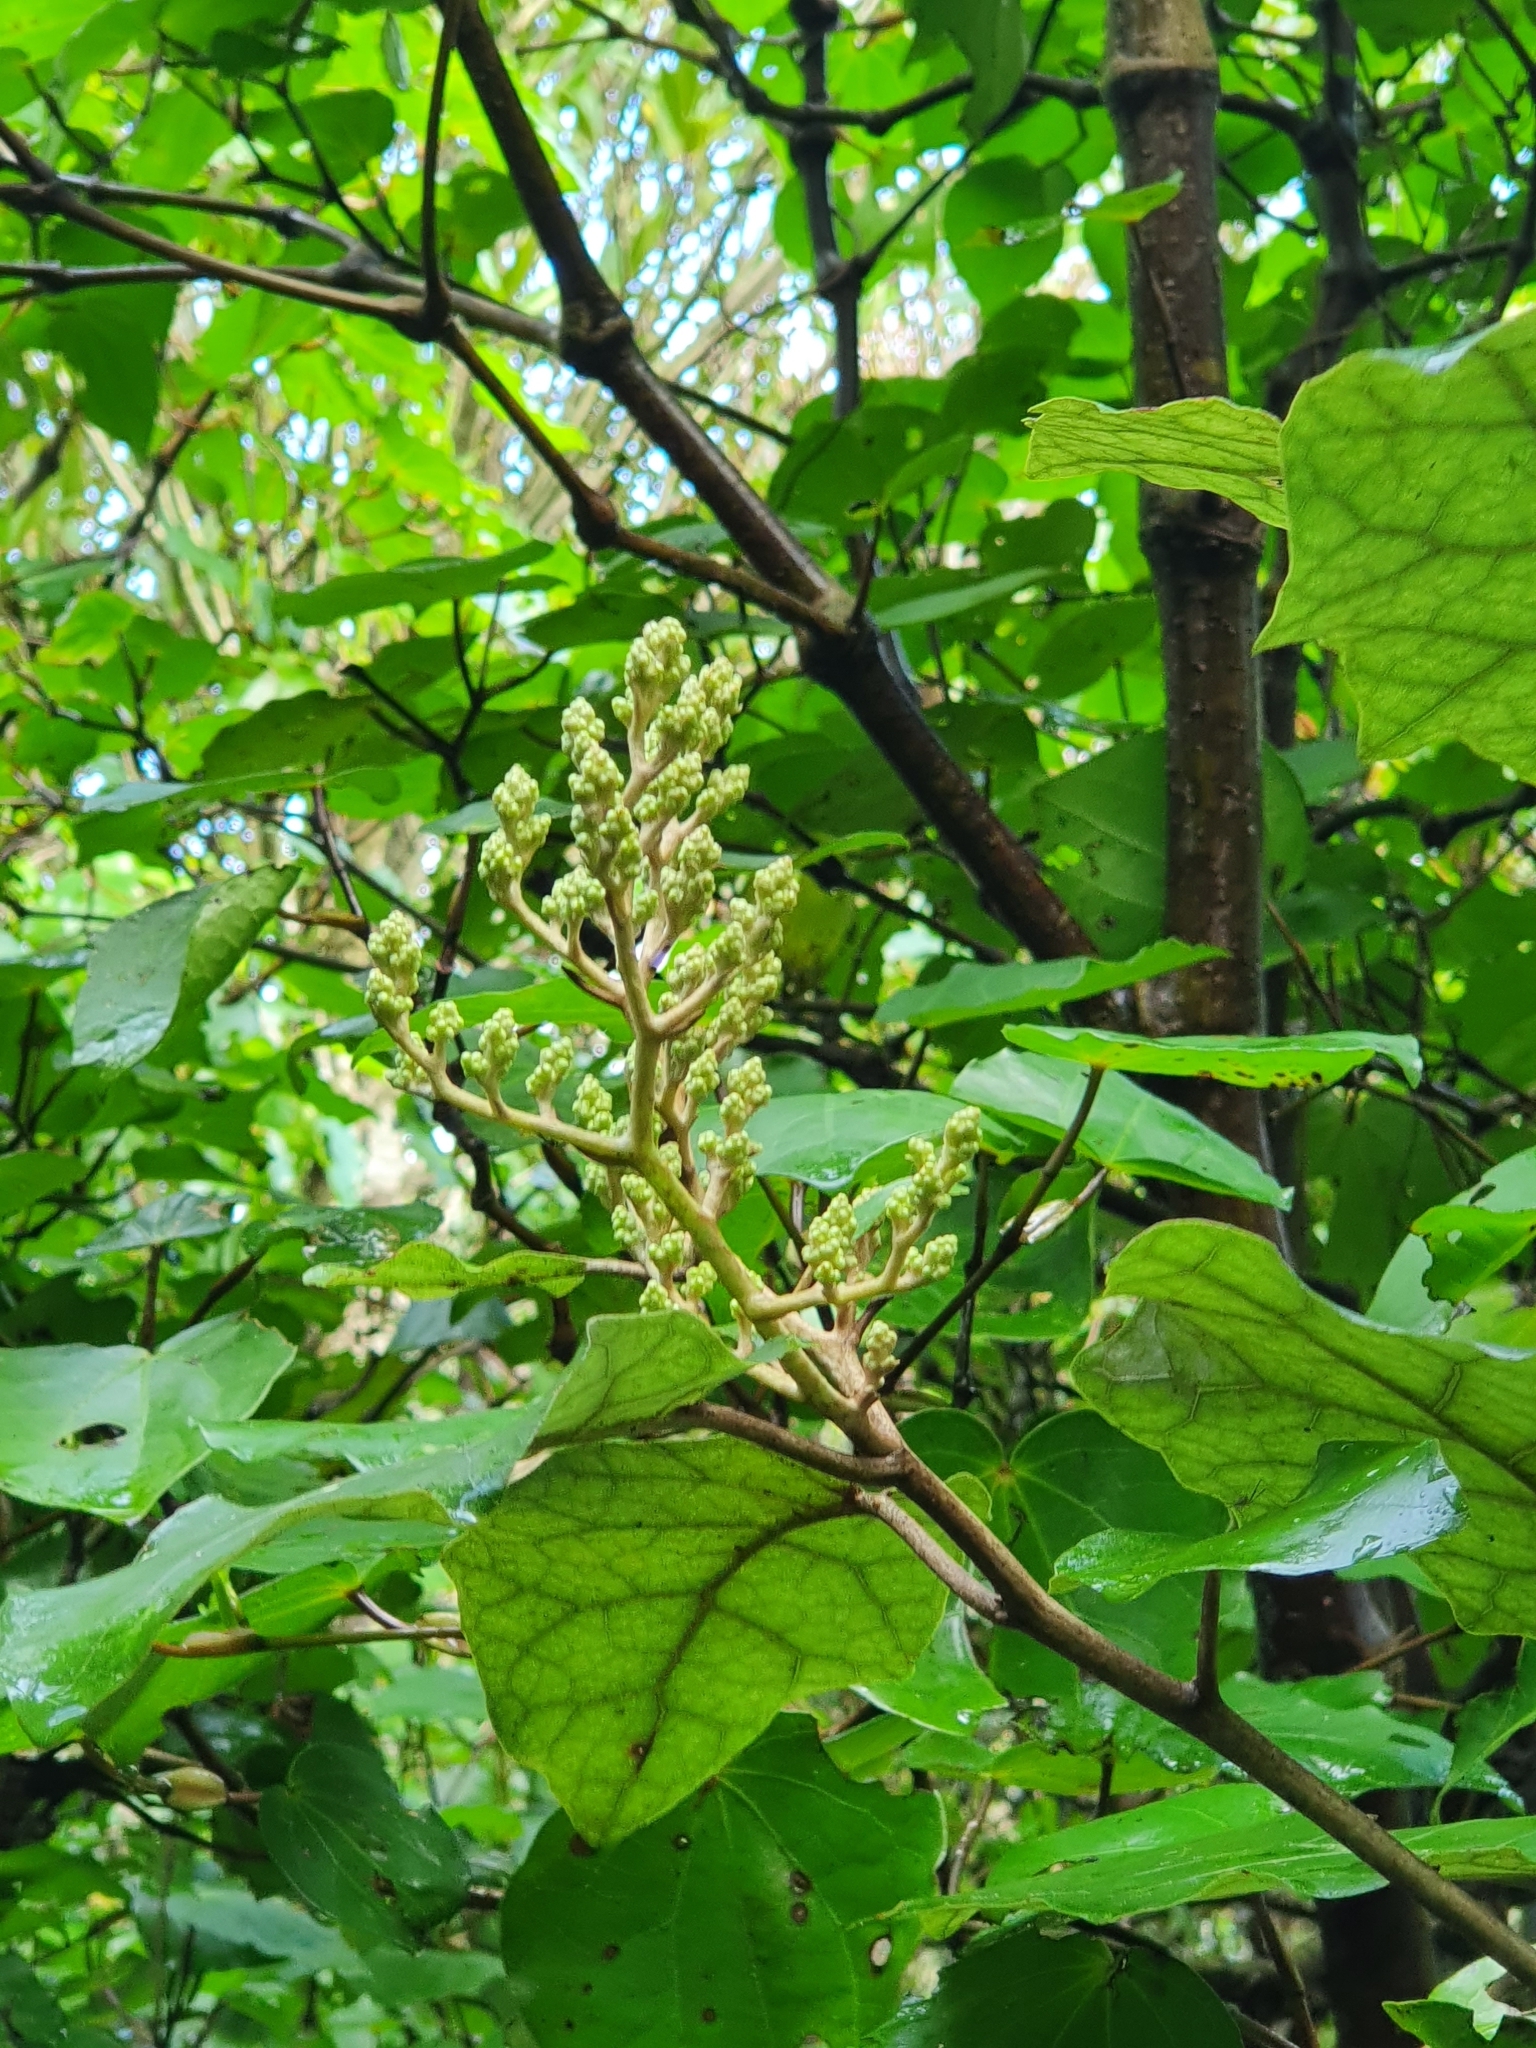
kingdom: Plantae
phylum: Tracheophyta
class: Magnoliopsida
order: Asterales
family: Asteraceae
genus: Brachyglottis
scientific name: Brachyglottis repanda
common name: Hedge ragwort
